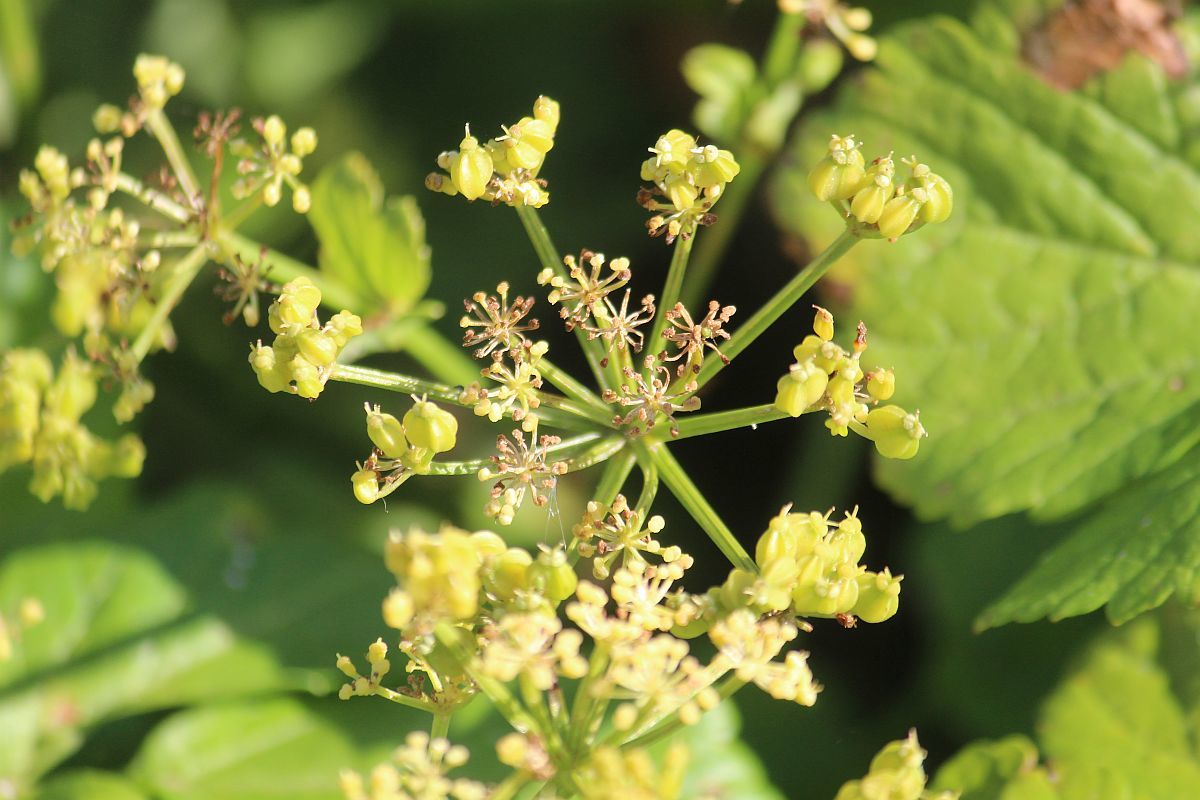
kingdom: Plantae
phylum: Tracheophyta
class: Magnoliopsida
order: Apiales
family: Apiaceae
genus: Smyrnium
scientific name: Smyrnium olusatrum
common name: Alexanders
